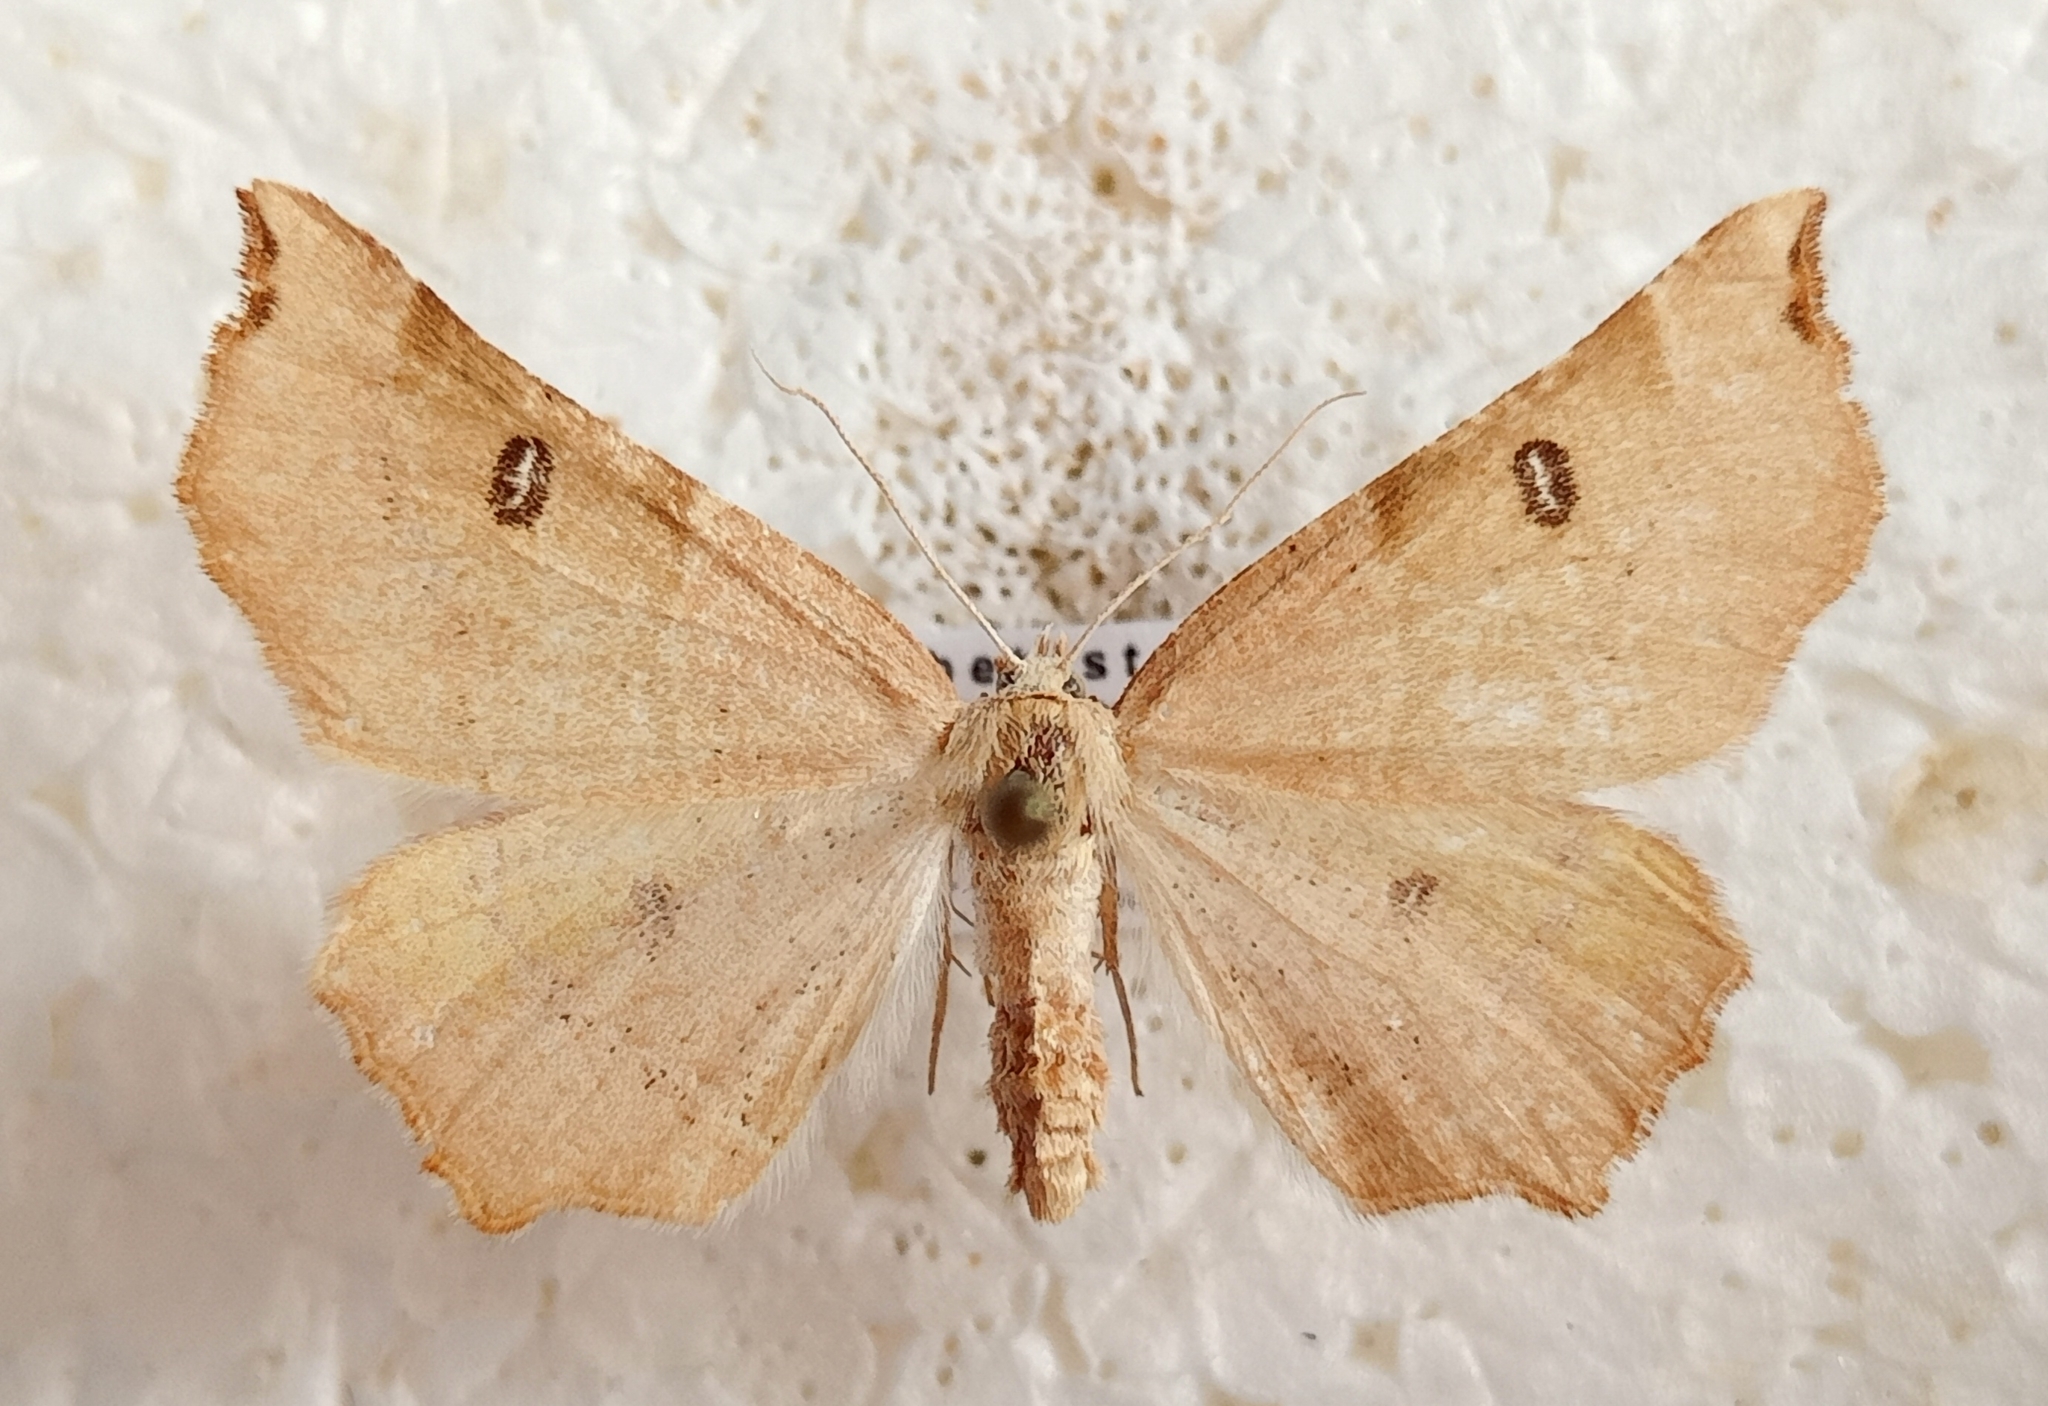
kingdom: Animalia
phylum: Arthropoda
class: Insecta
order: Lepidoptera
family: Geometridae
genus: Artemidora
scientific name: Artemidora
